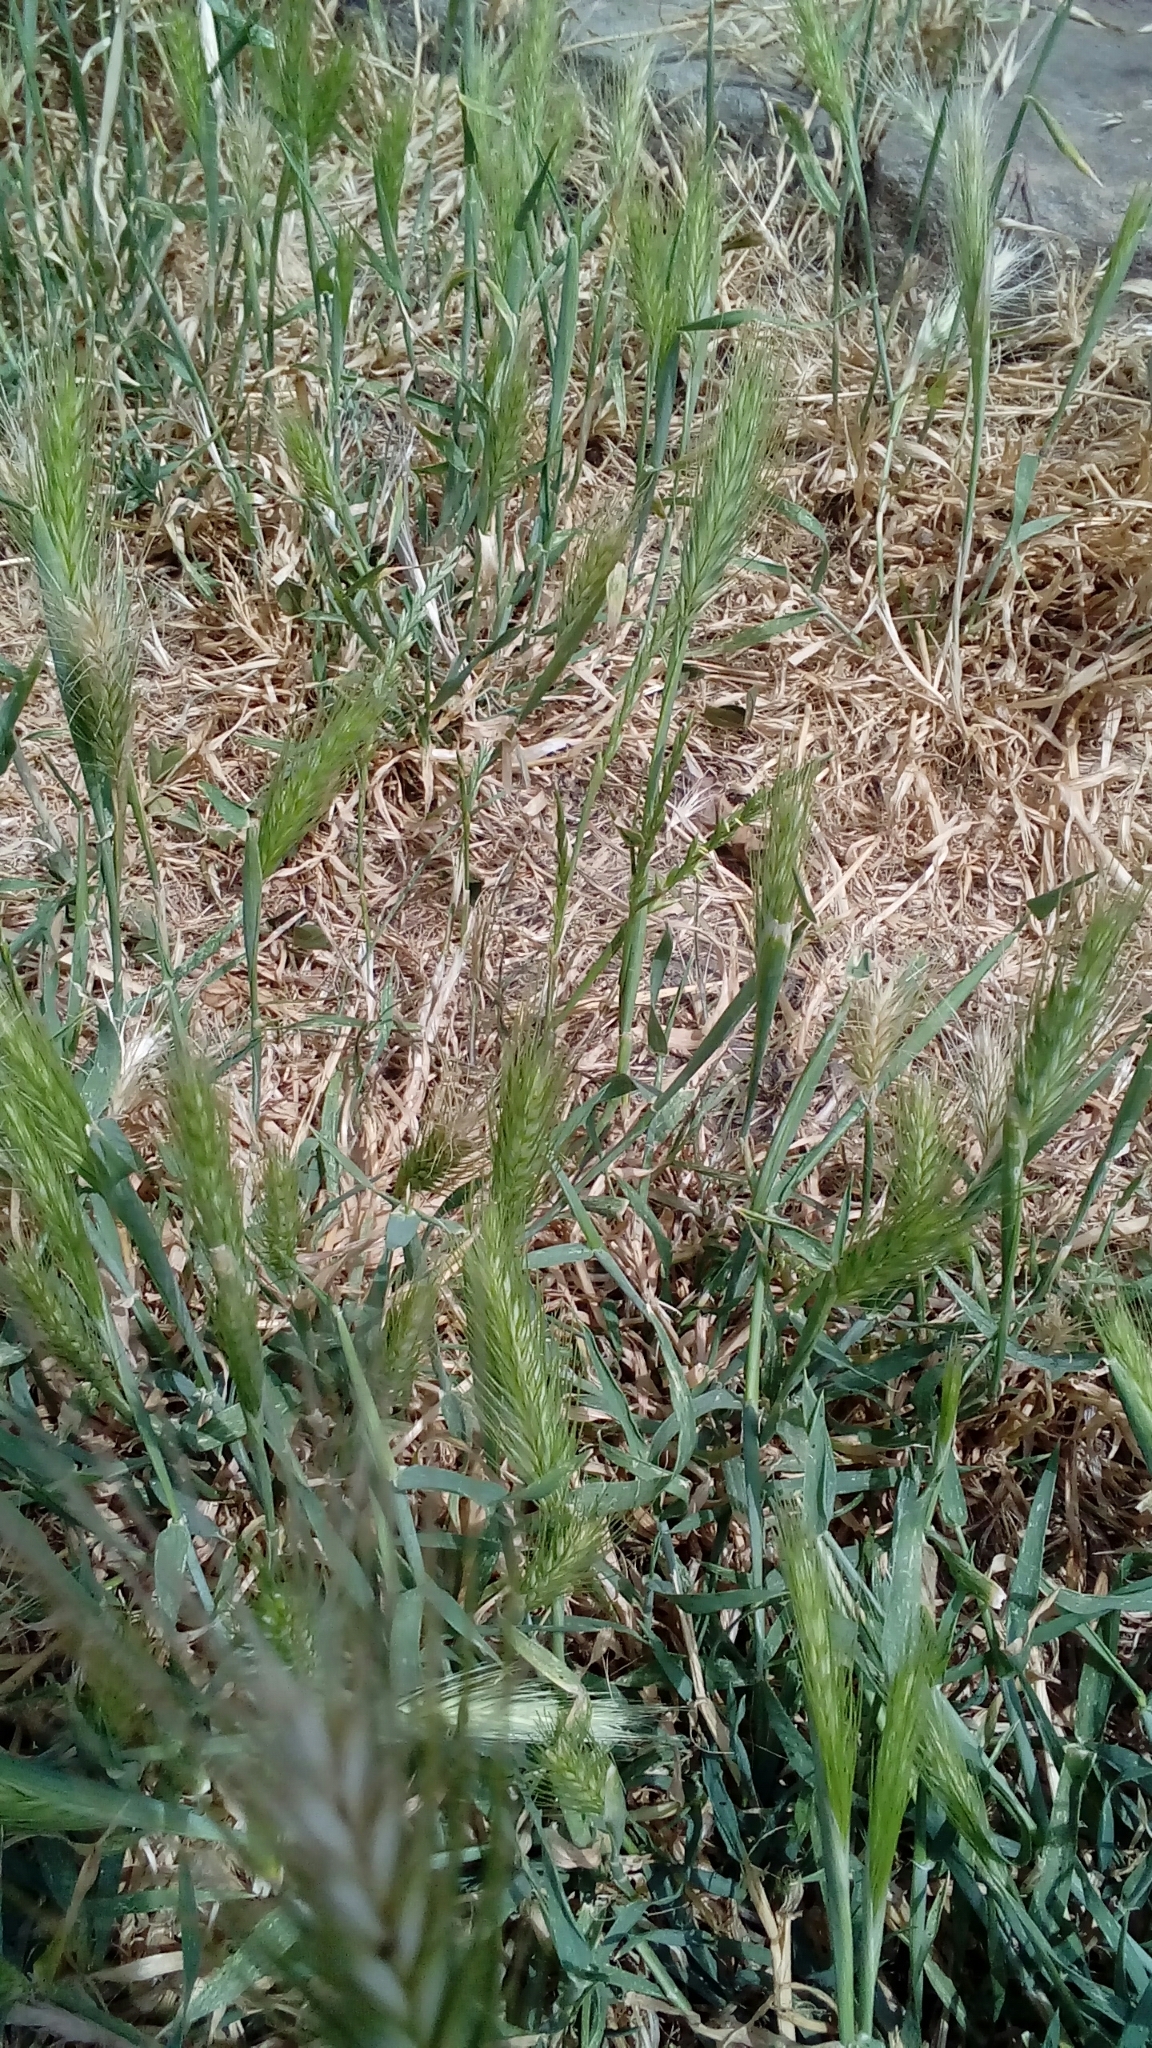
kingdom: Plantae
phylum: Tracheophyta
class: Liliopsida
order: Poales
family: Poaceae
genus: Hordeum
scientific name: Hordeum murinum
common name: Wall barley
